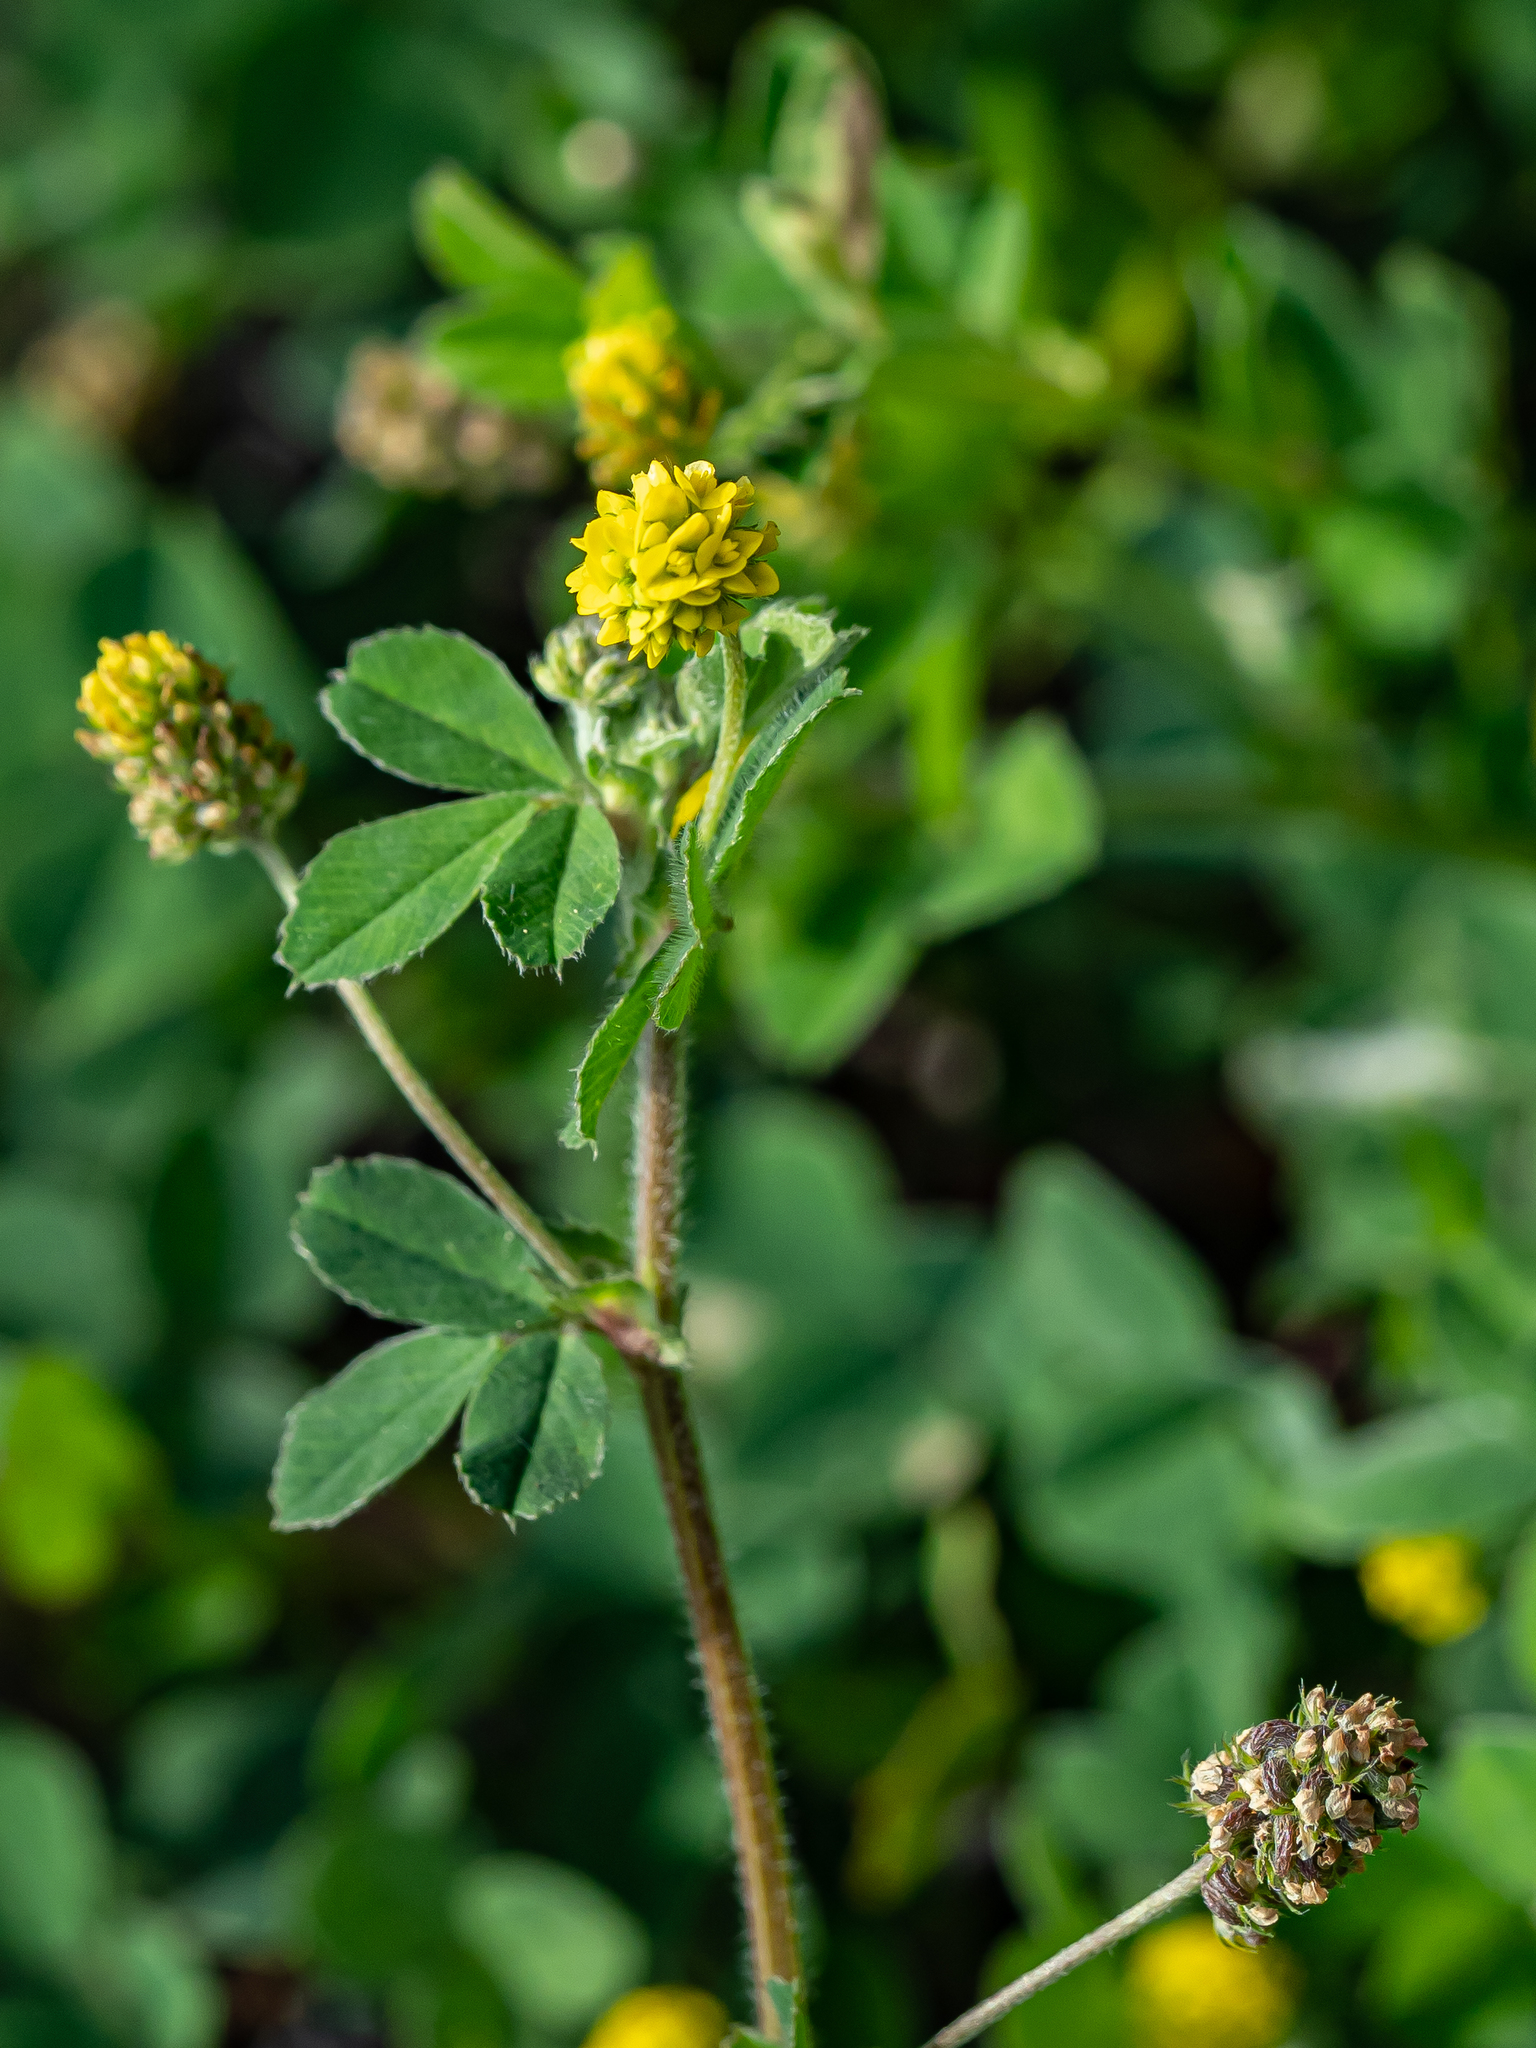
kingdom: Plantae
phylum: Tracheophyta
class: Magnoliopsida
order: Fabales
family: Fabaceae
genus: Medicago
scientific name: Medicago lupulina
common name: Black medick
